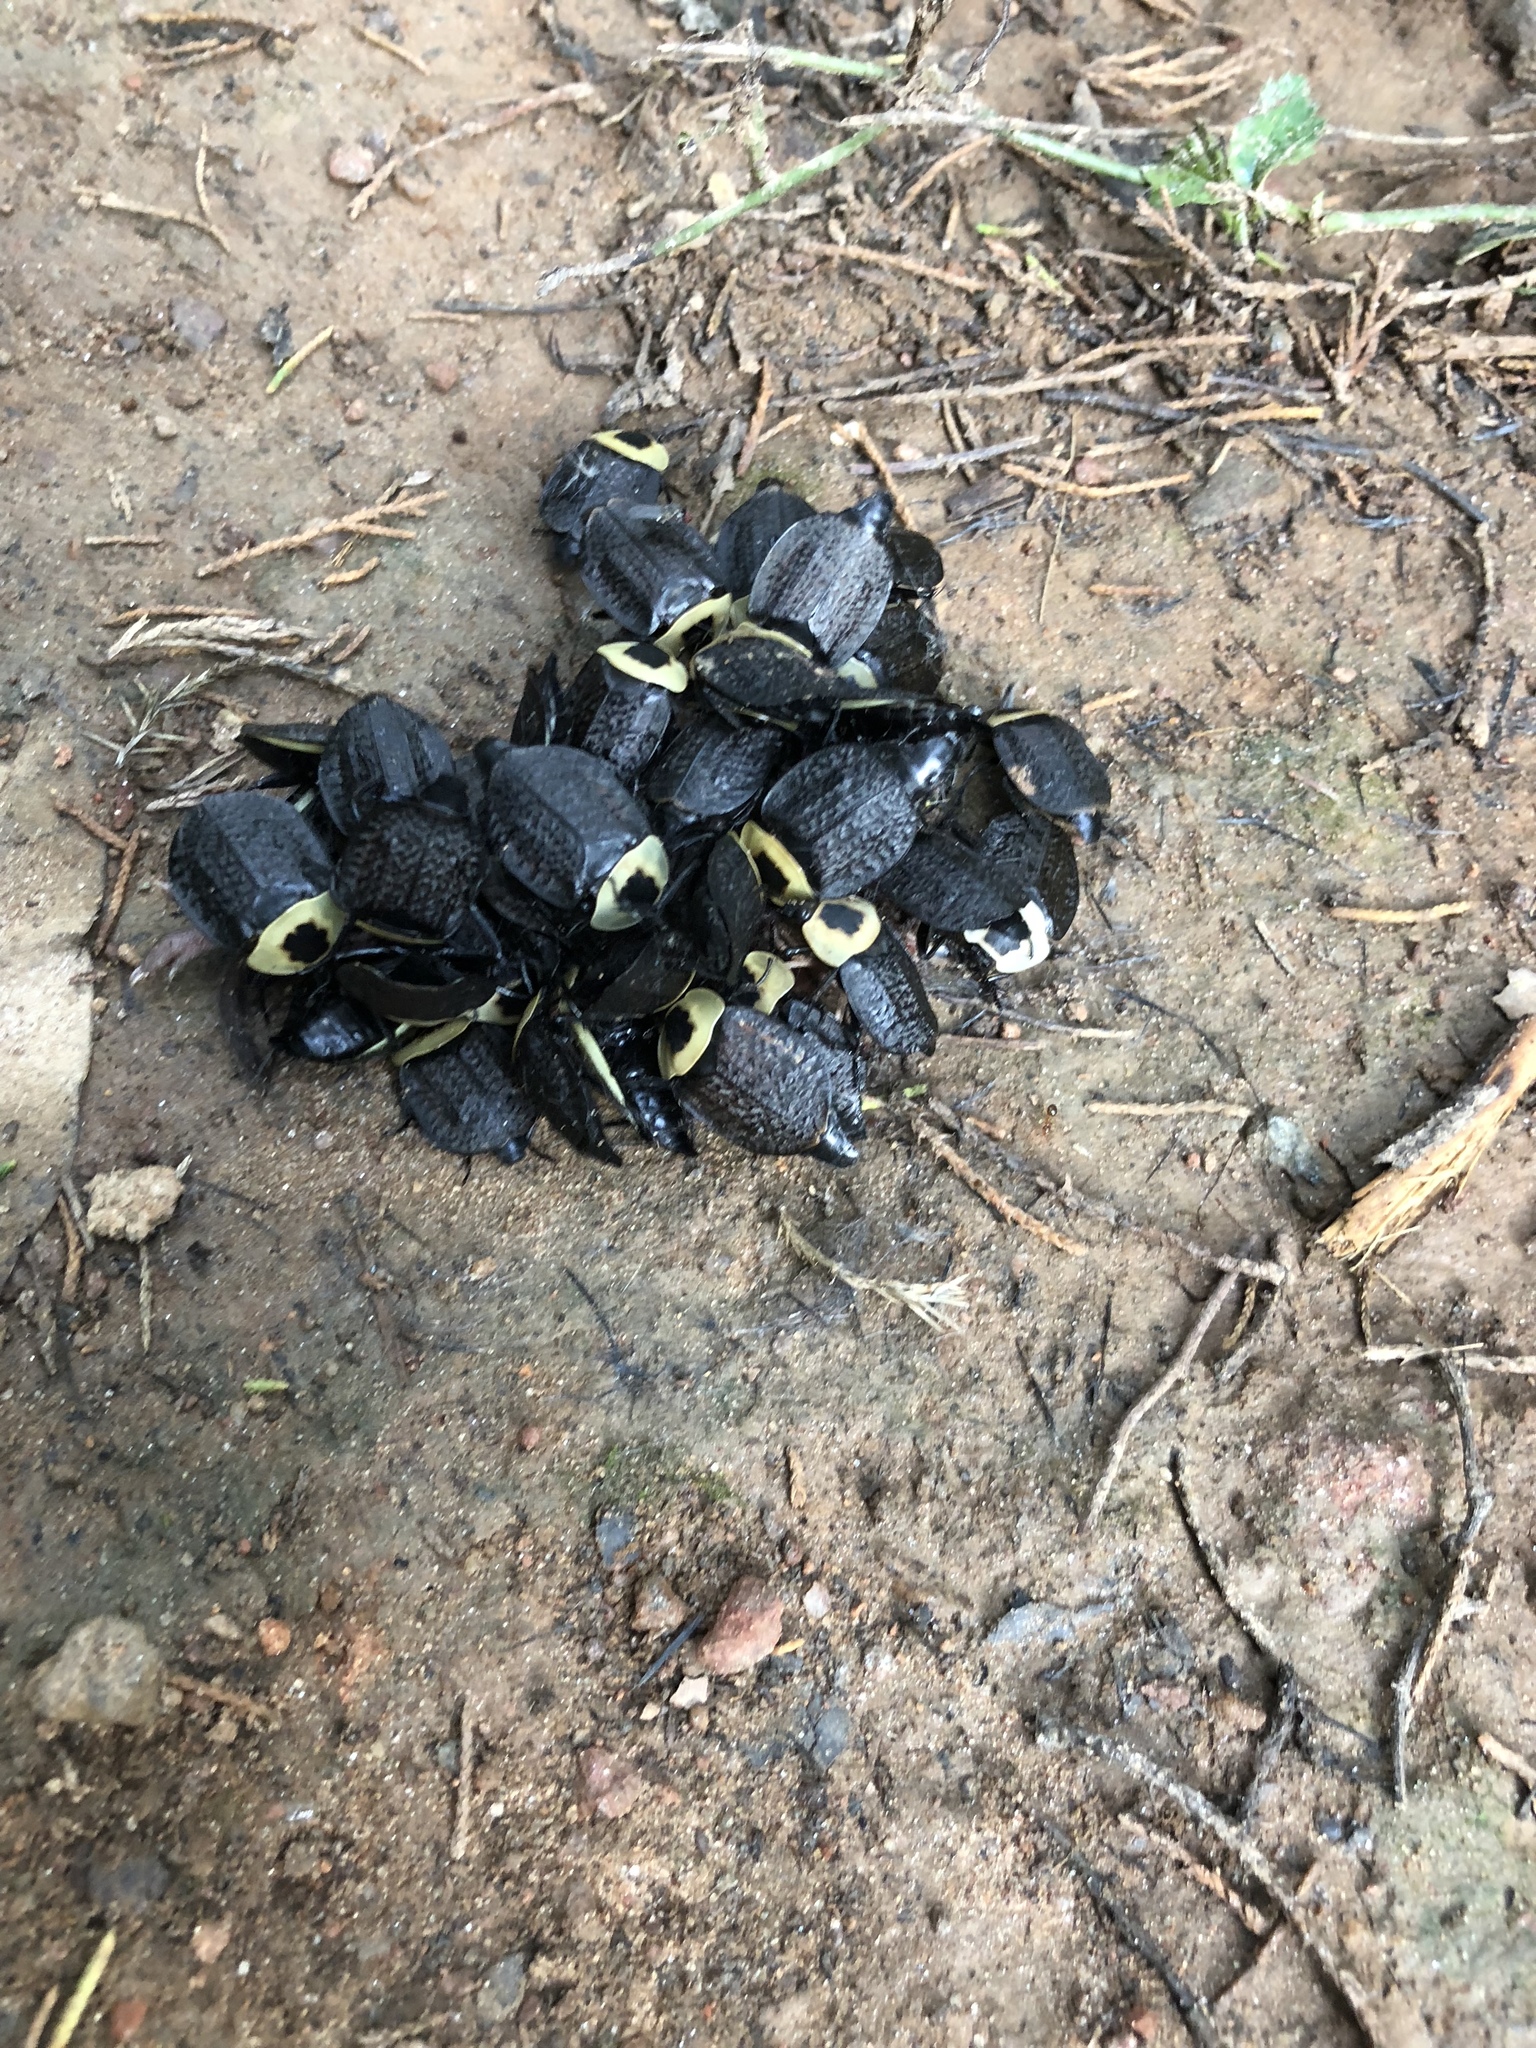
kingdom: Animalia
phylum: Arthropoda
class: Insecta
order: Coleoptera
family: Staphylinidae
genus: Necrophila
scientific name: Necrophila americana
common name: American carrion beetle
